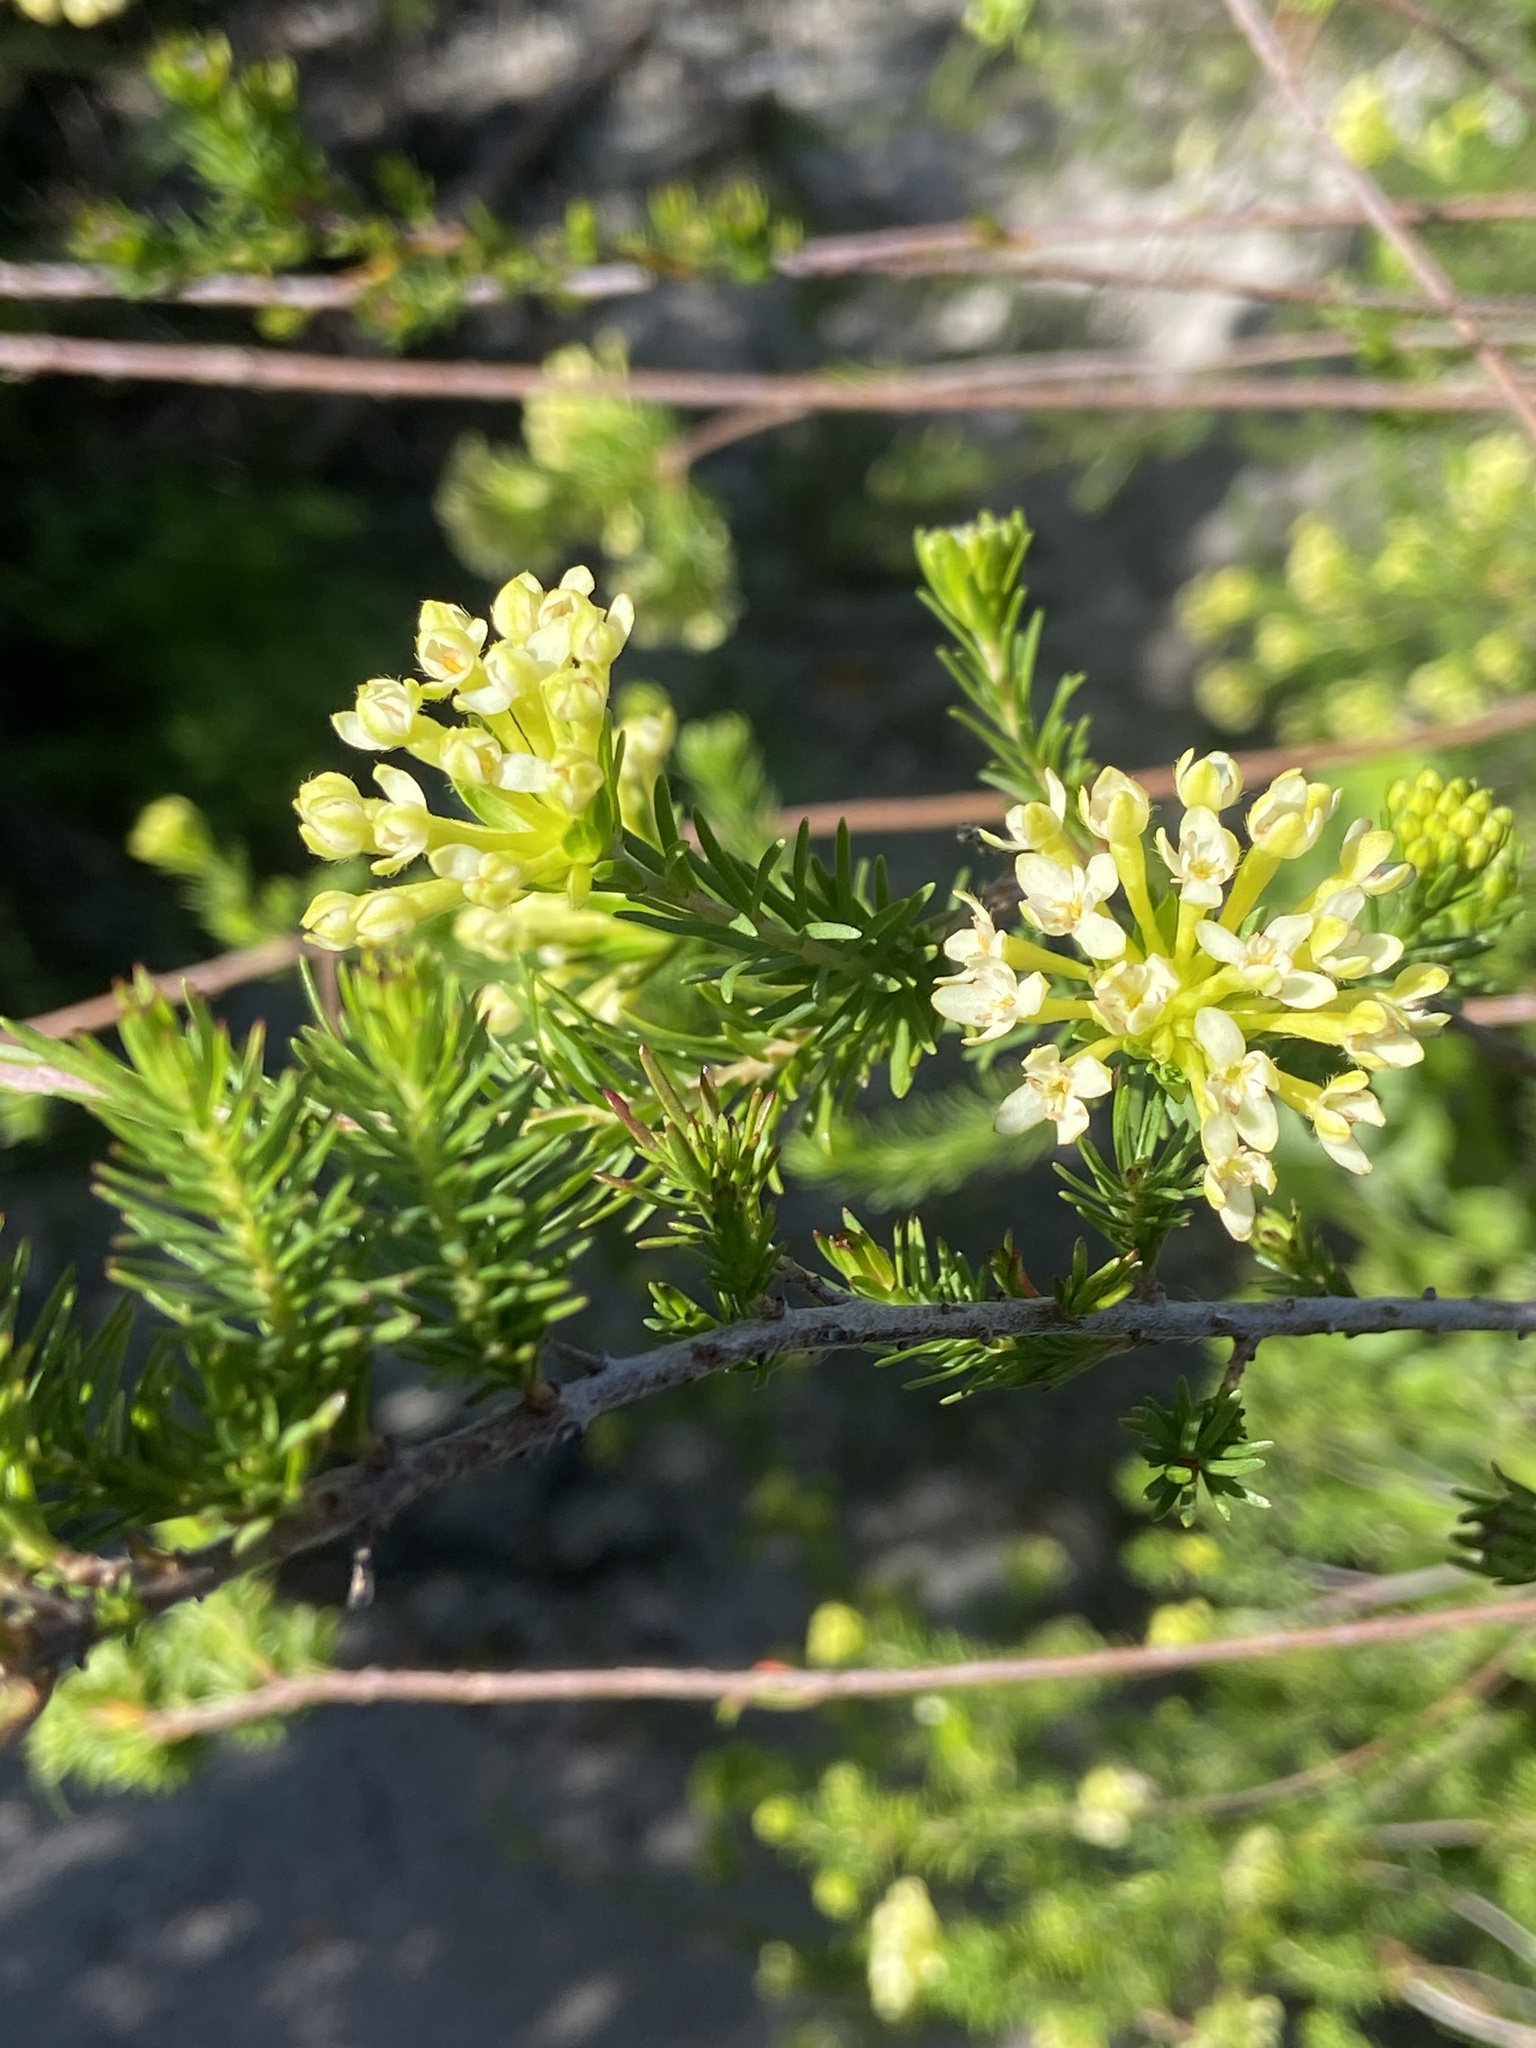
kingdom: Plantae
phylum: Tracheophyta
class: Magnoliopsida
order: Malvales
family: Thymelaeaceae
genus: Gnidia
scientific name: Gnidia squarrosa
